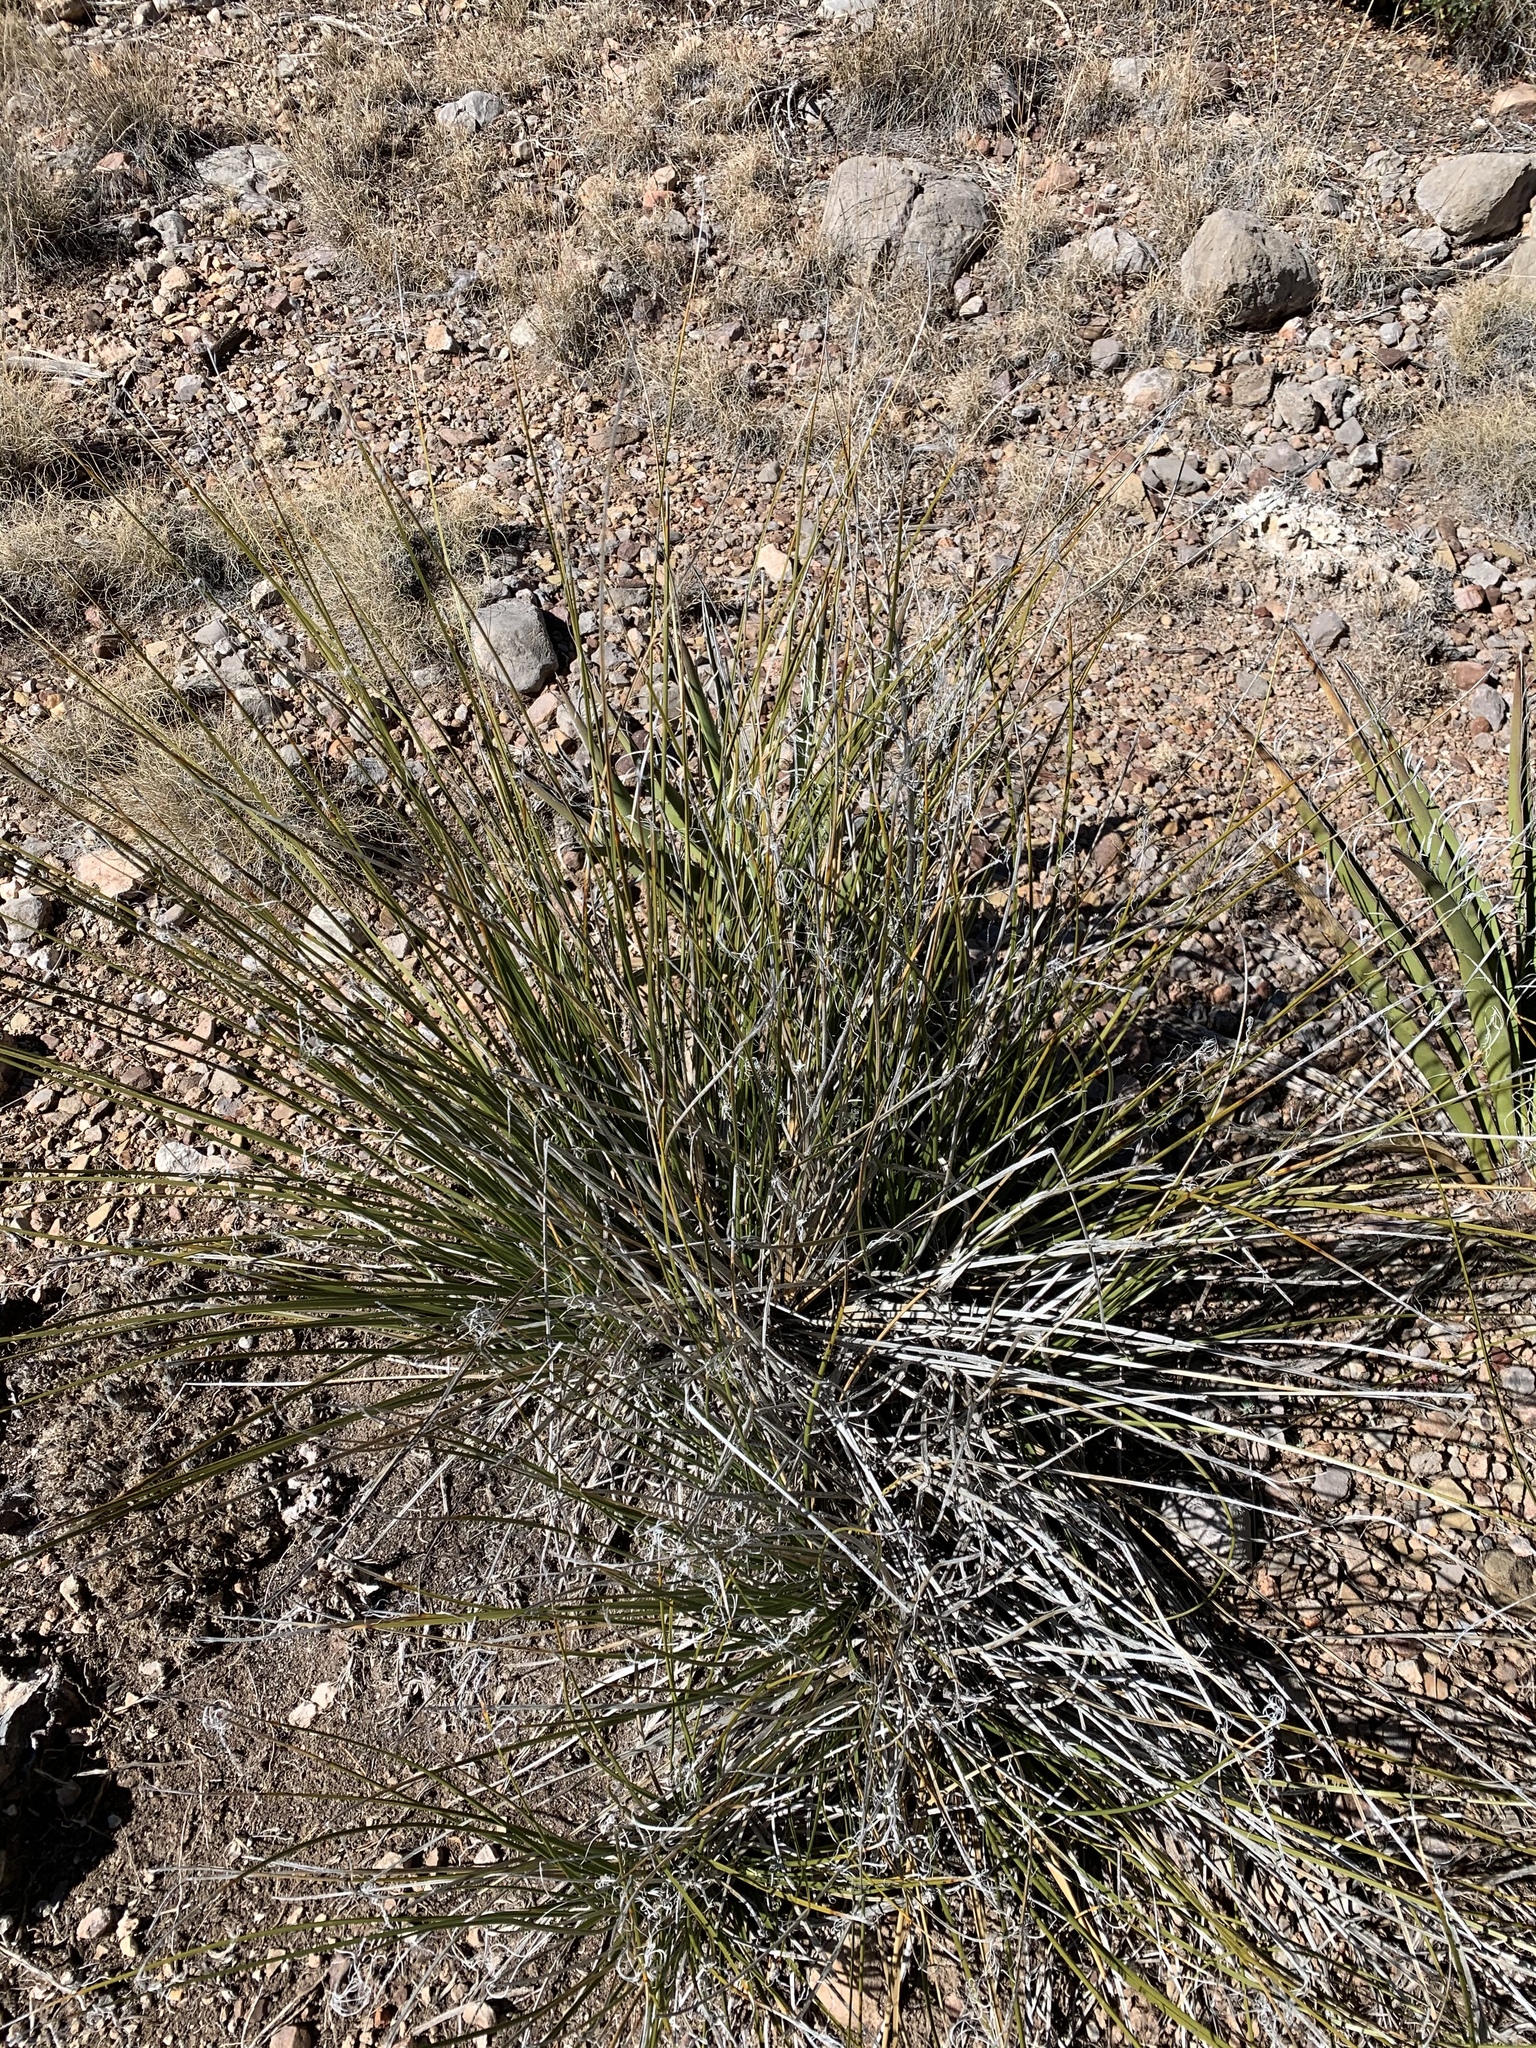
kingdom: Plantae
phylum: Tracheophyta
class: Liliopsida
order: Asparagales
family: Asparagaceae
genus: Nolina
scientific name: Nolina texana
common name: Texas sacahuiste
